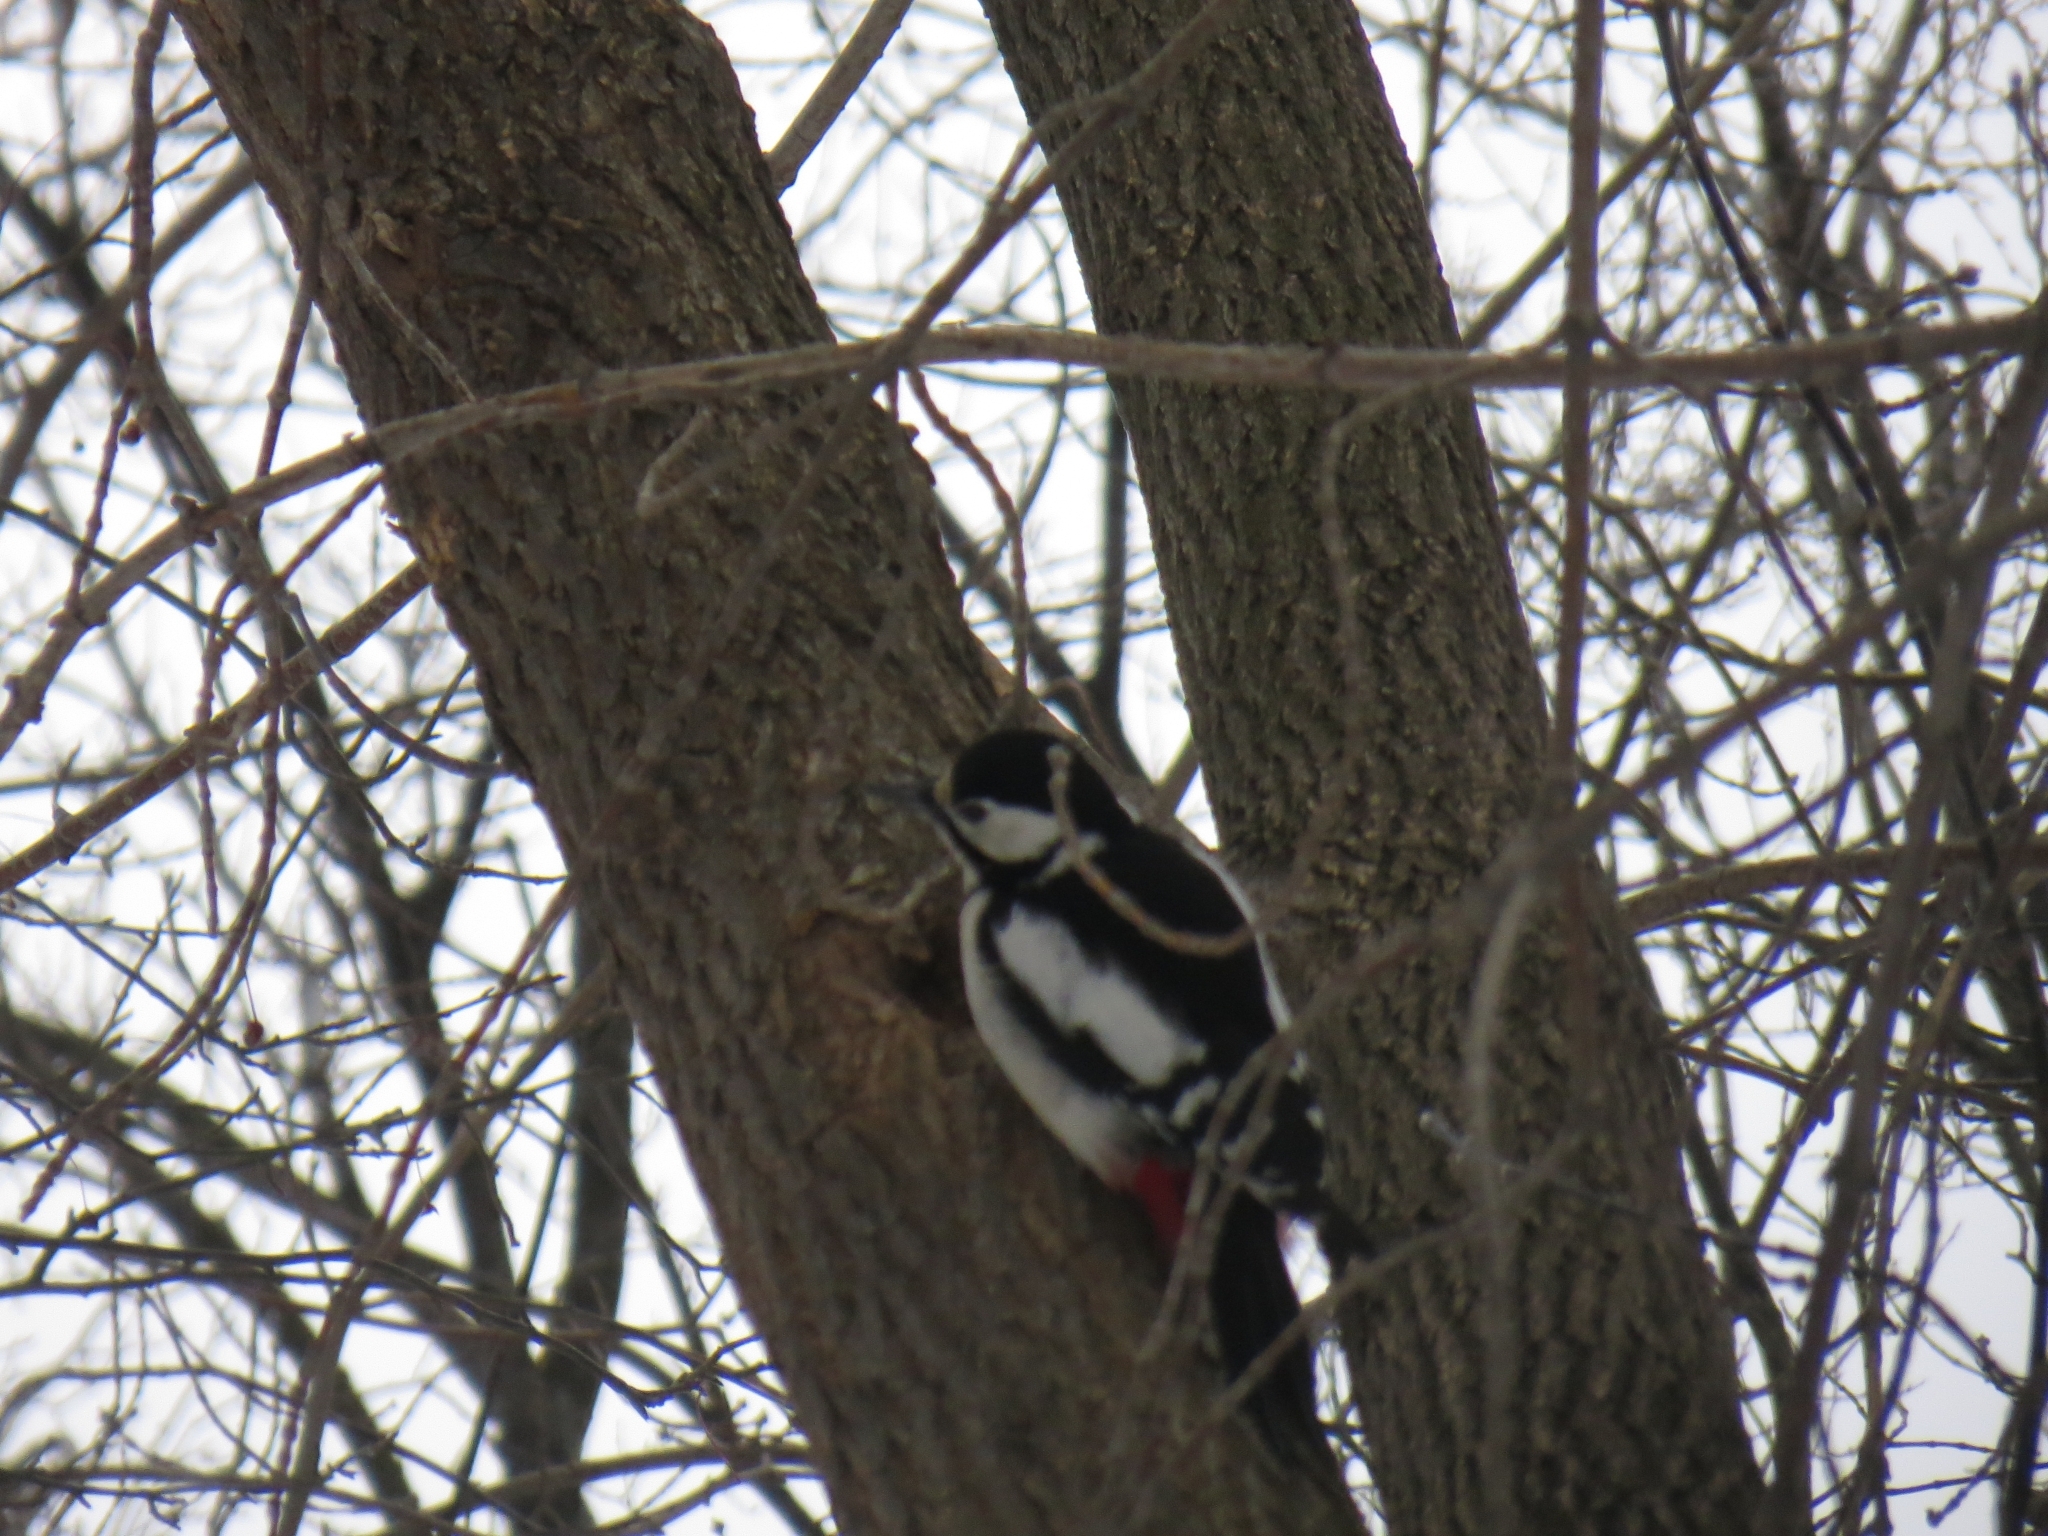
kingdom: Animalia
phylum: Chordata
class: Aves
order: Piciformes
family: Picidae
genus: Dendrocopos
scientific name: Dendrocopos major
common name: Great spotted woodpecker
